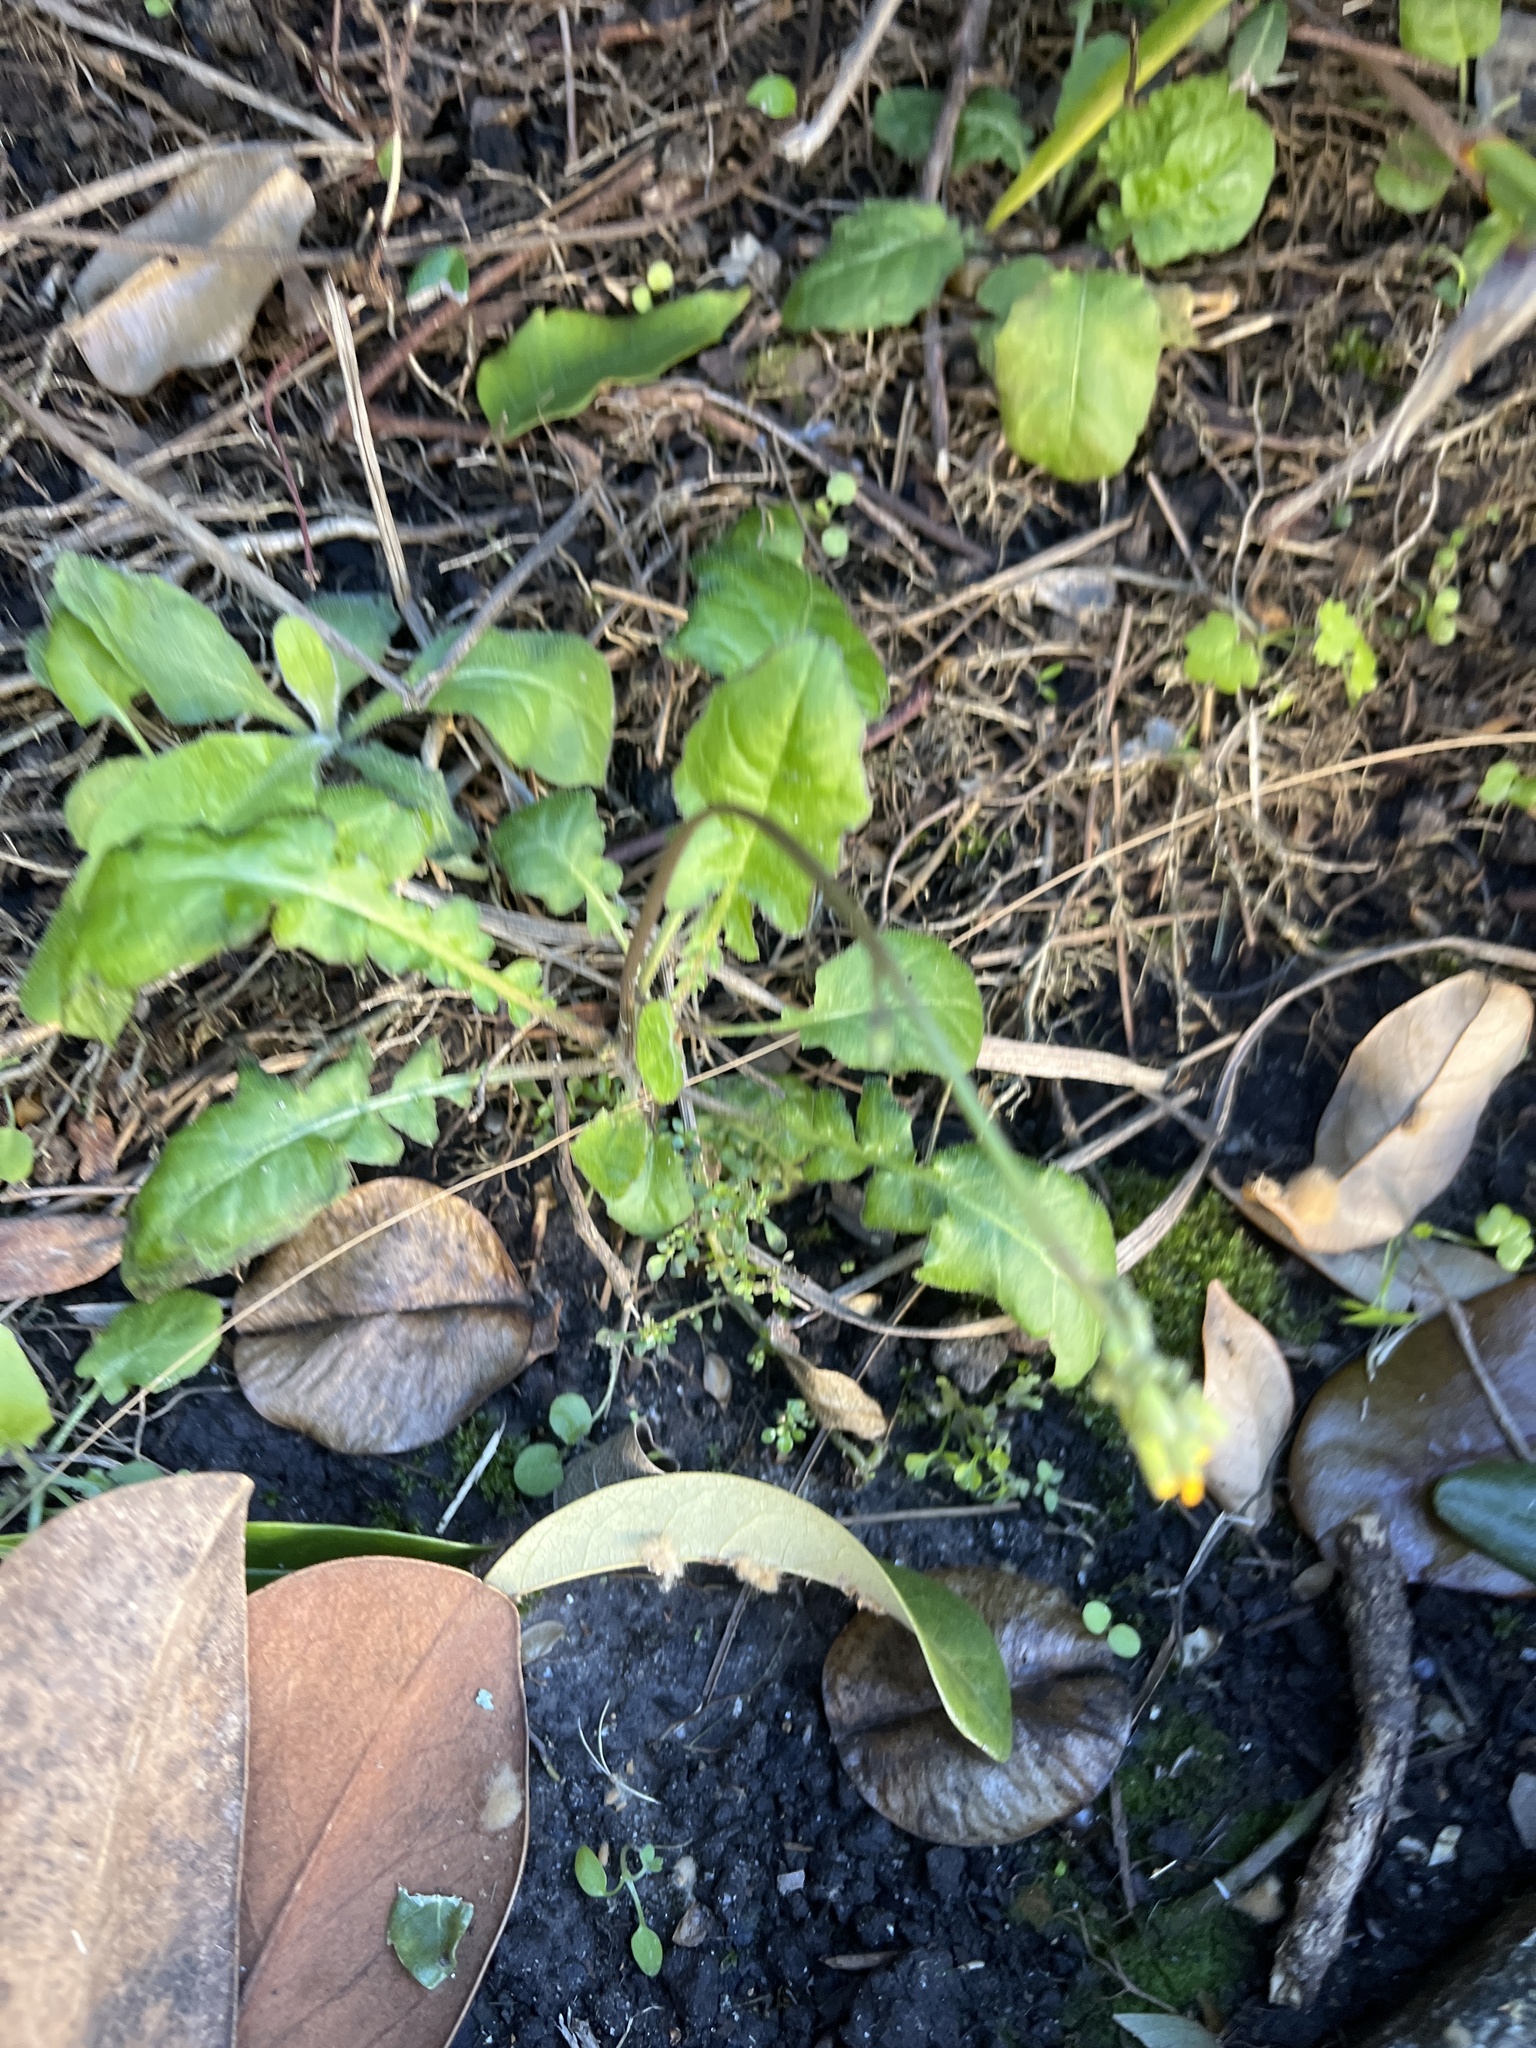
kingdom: Plantae
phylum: Tracheophyta
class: Magnoliopsida
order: Asterales
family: Asteraceae
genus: Youngia
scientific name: Youngia japonica
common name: Oriental false hawksbeard
